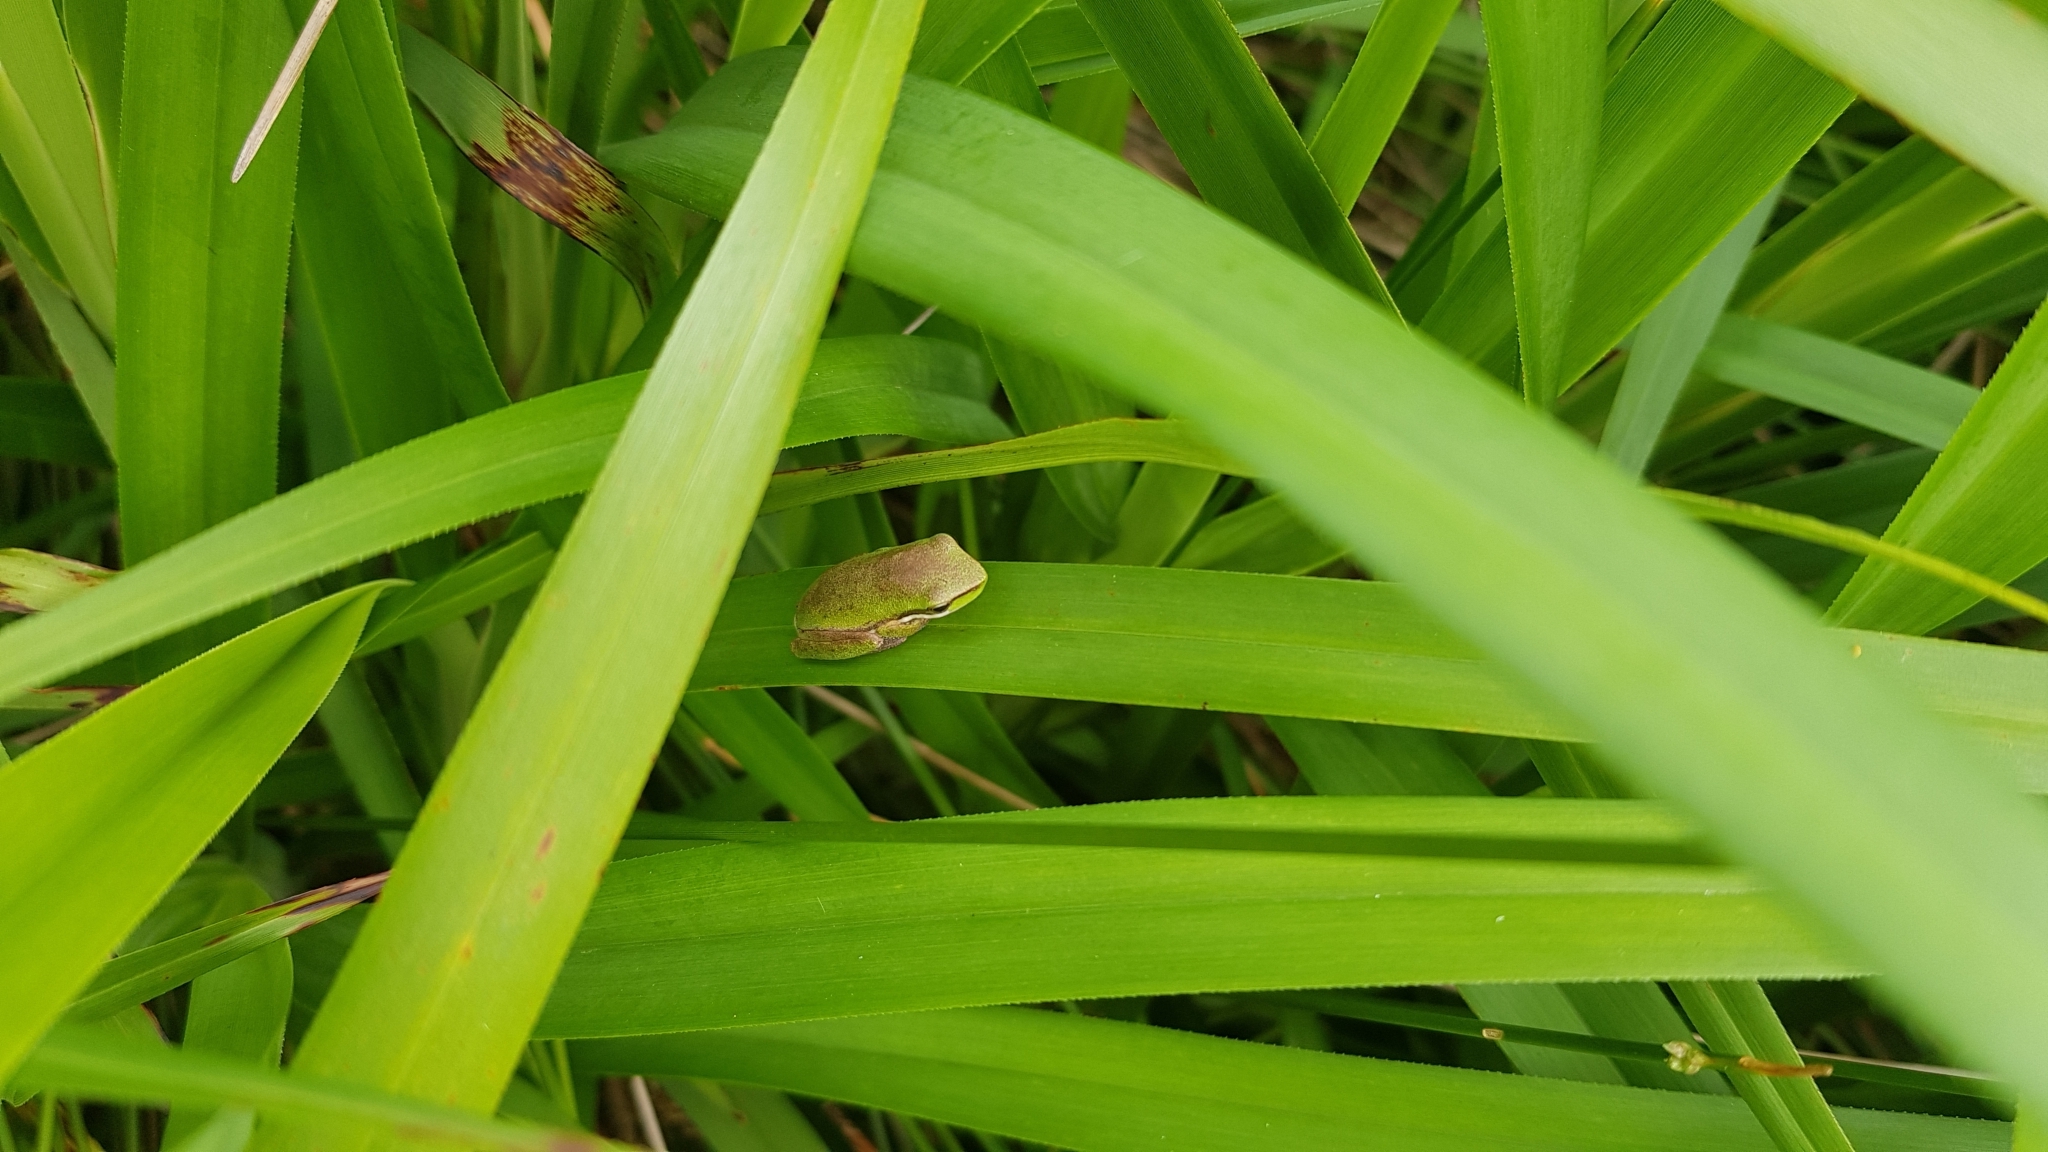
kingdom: Animalia
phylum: Chordata
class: Amphibia
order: Anura
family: Pelodryadidae
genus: Litoria
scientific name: Litoria fallax
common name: Eastern dwarf treefrog
